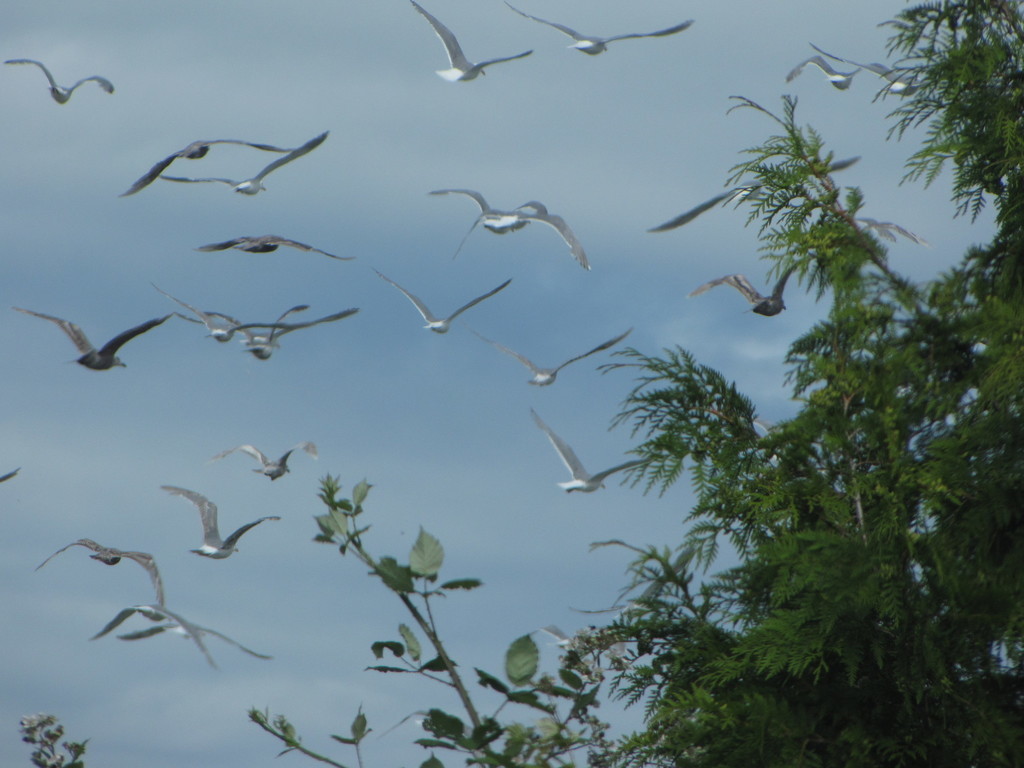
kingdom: Animalia
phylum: Chordata
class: Aves
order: Charadriiformes
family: Laridae
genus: Larus
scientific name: Larus glaucescens
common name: Glaucous-winged gull
